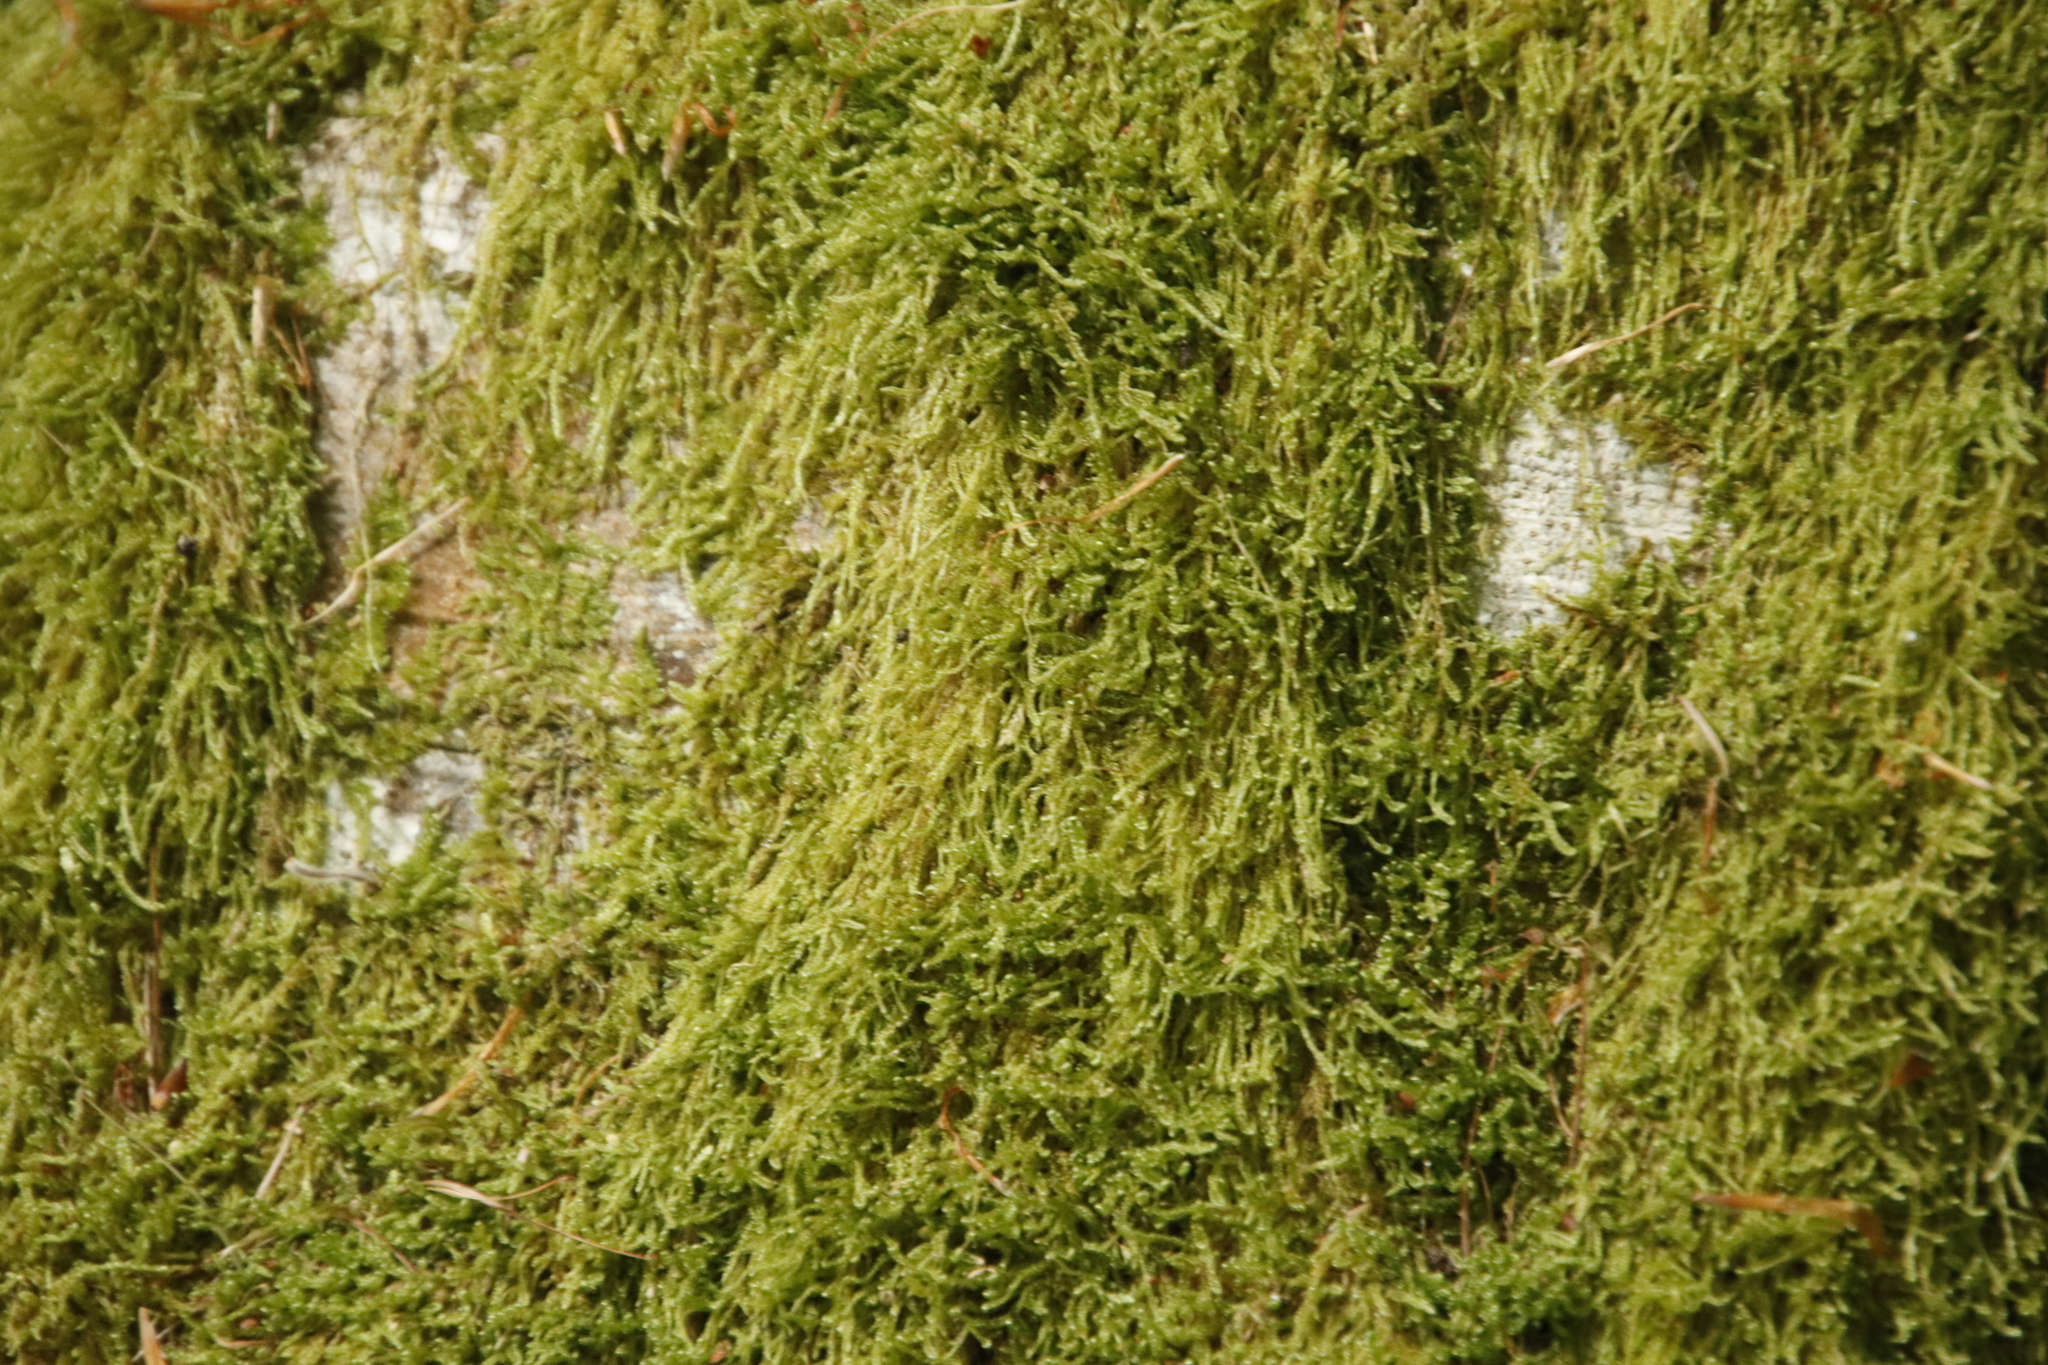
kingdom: Plantae
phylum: Bryophyta
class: Bryopsida
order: Hypnales
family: Hypnaceae
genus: Hypnum
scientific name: Hypnum andoi
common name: Ando's plait moss
